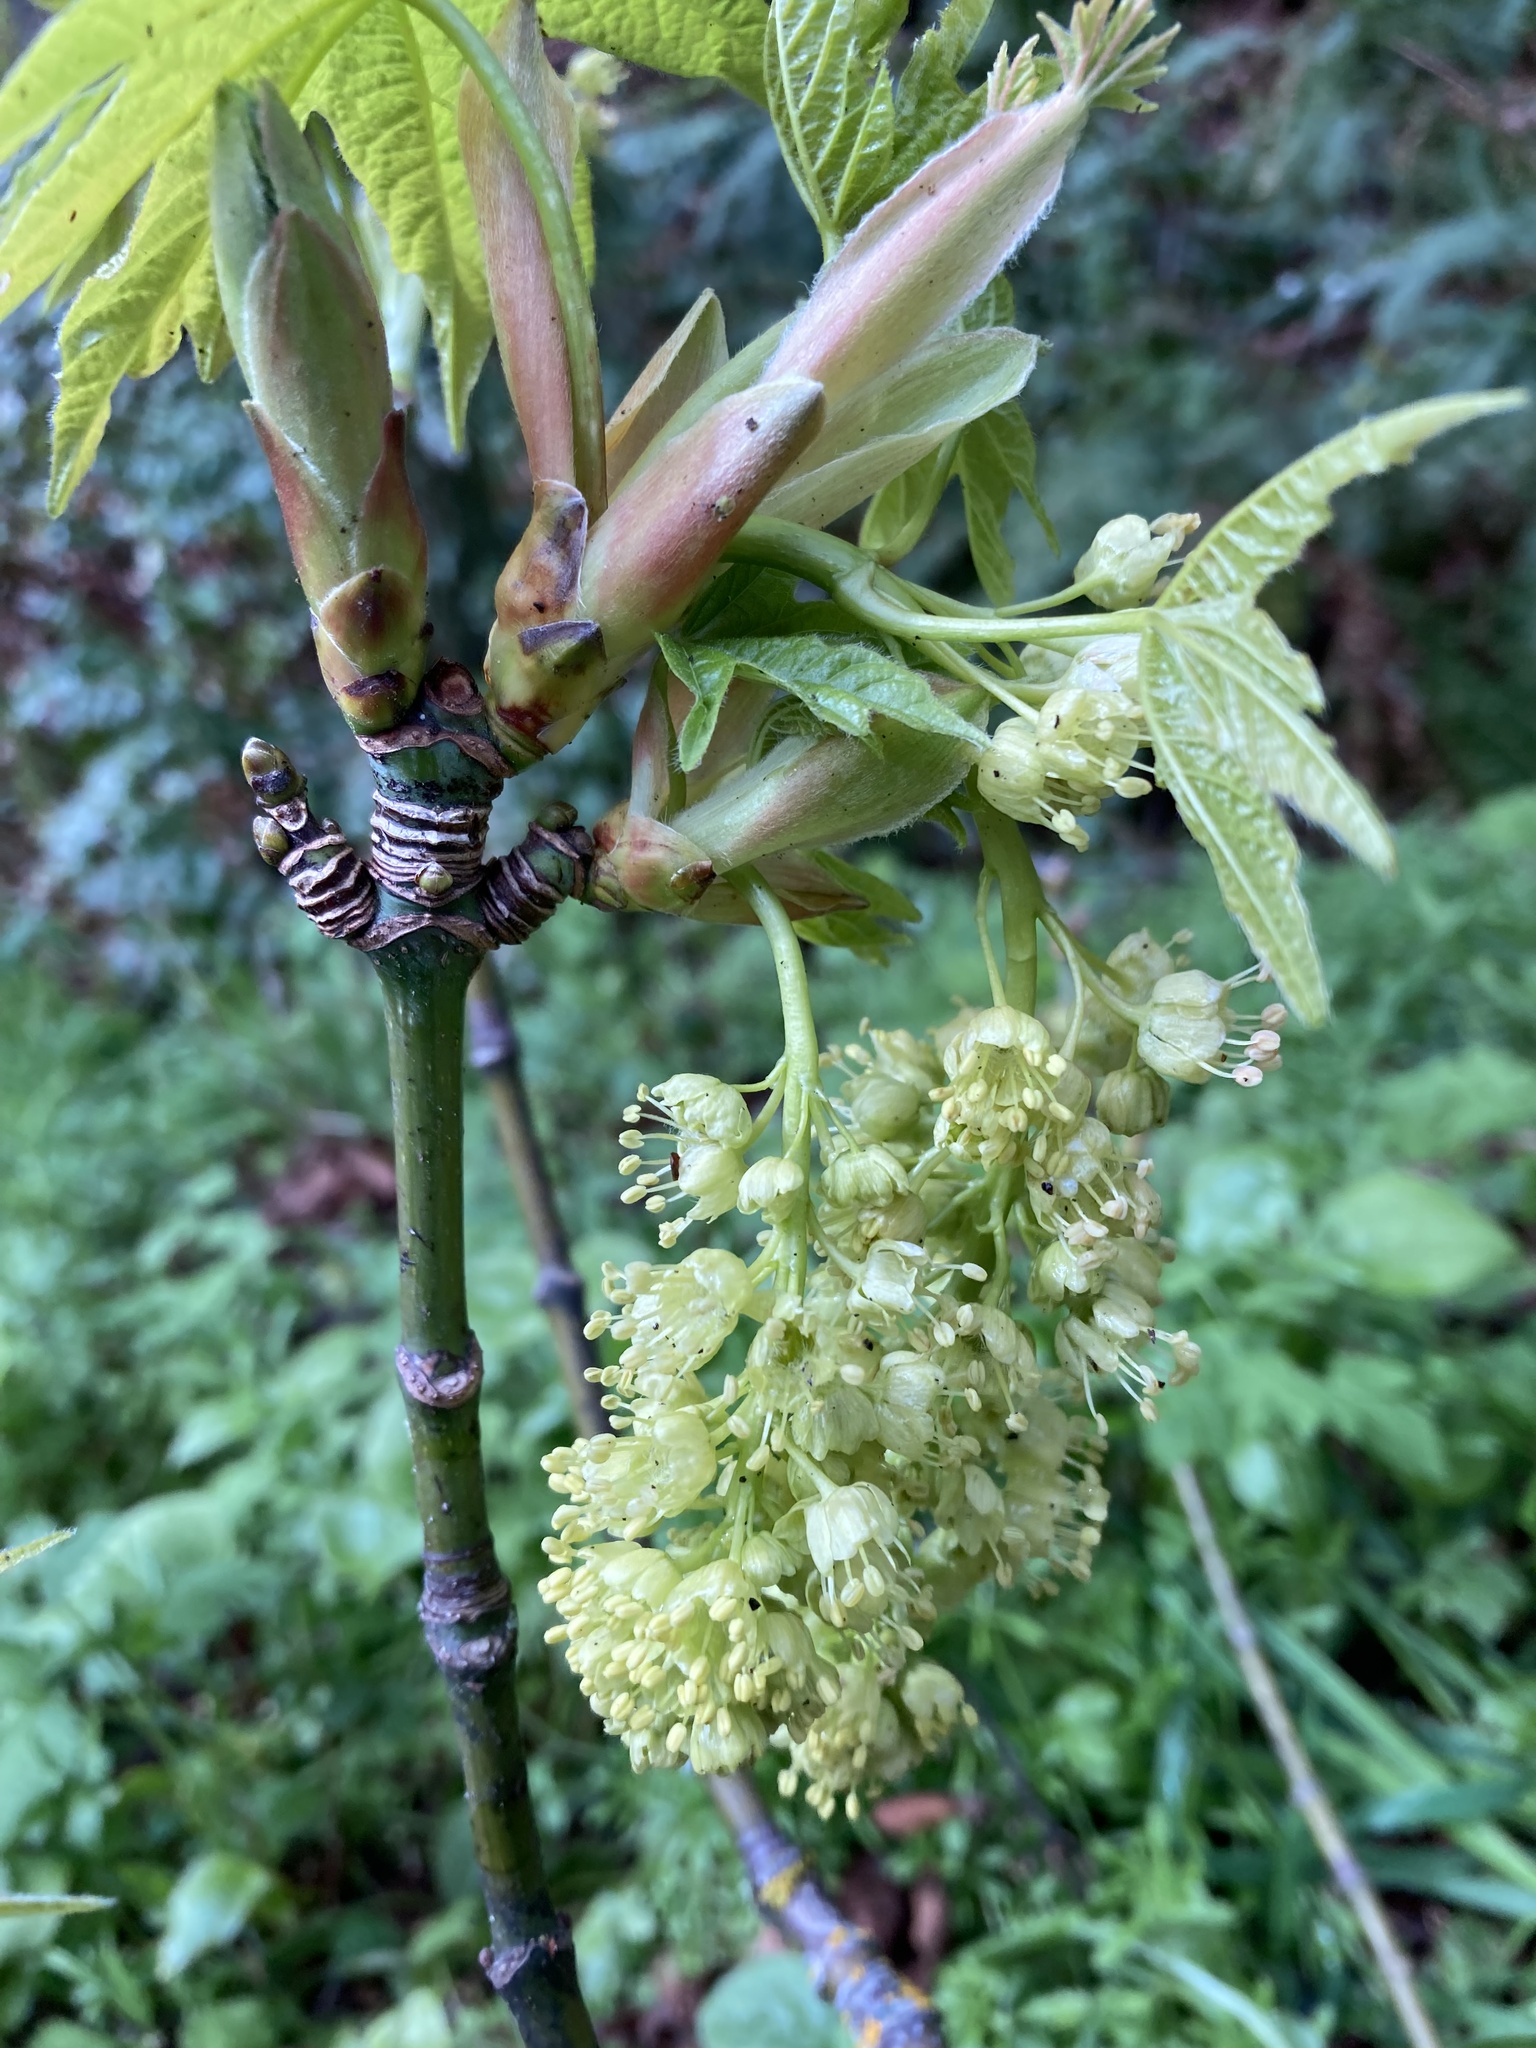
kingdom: Plantae
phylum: Tracheophyta
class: Magnoliopsida
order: Sapindales
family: Sapindaceae
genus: Acer
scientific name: Acer macrophyllum
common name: Oregon maple
